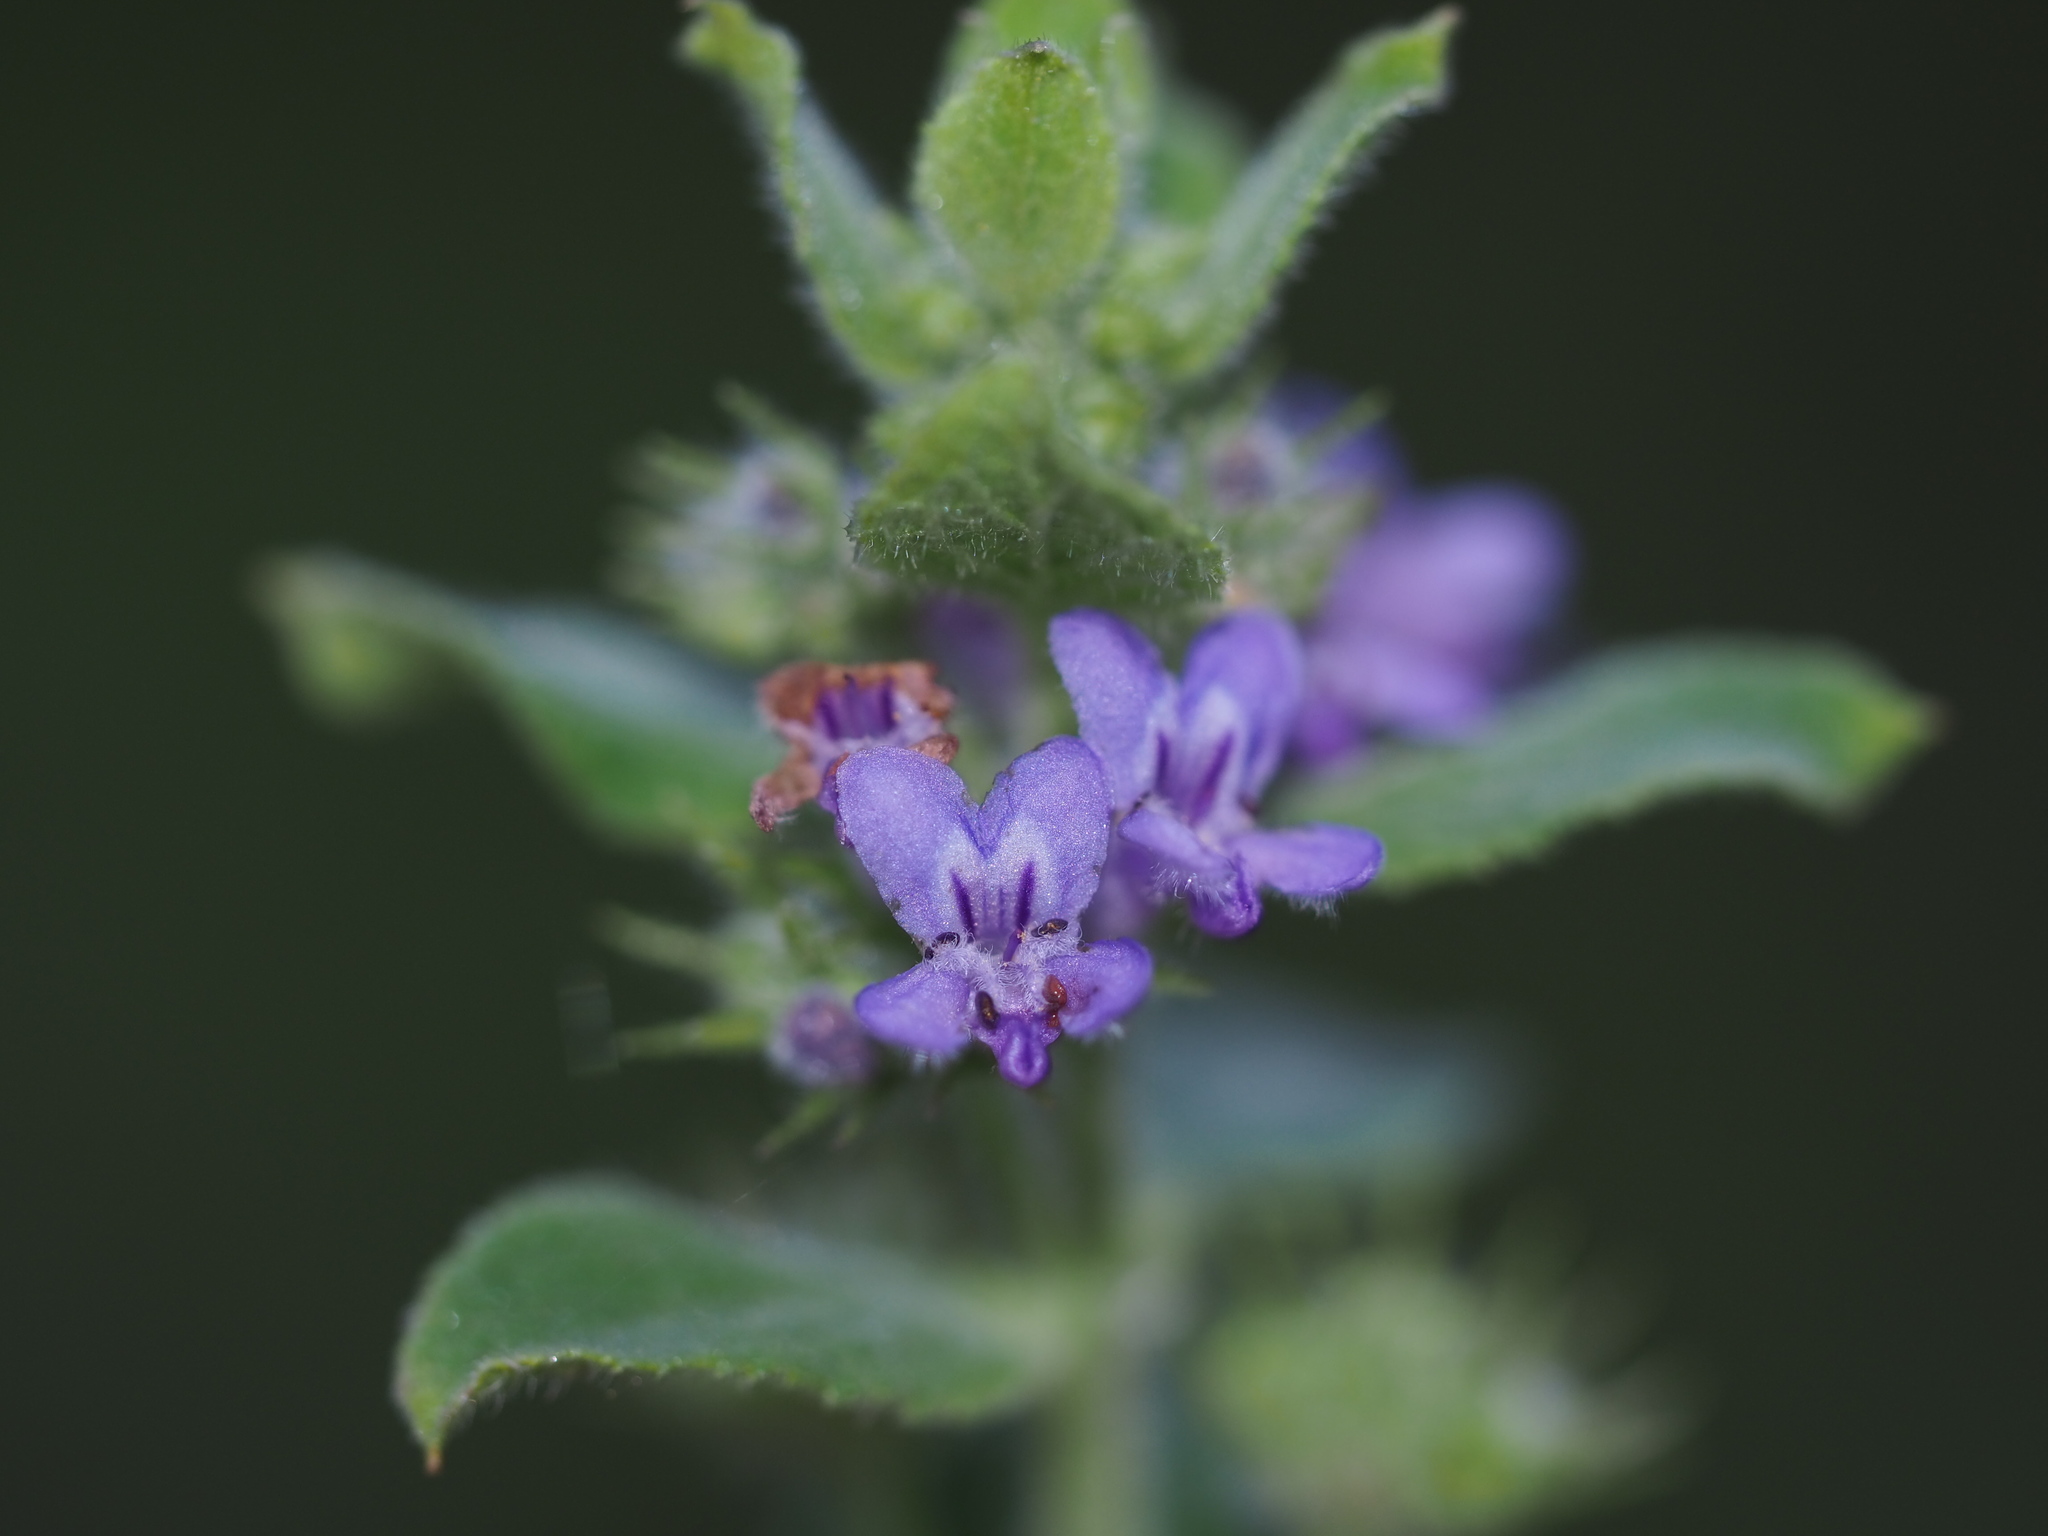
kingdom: Plantae
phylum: Tracheophyta
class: Magnoliopsida
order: Lamiales
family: Lamiaceae
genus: Mesosphaerum
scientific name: Mesosphaerum suaveolens
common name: Pignut
